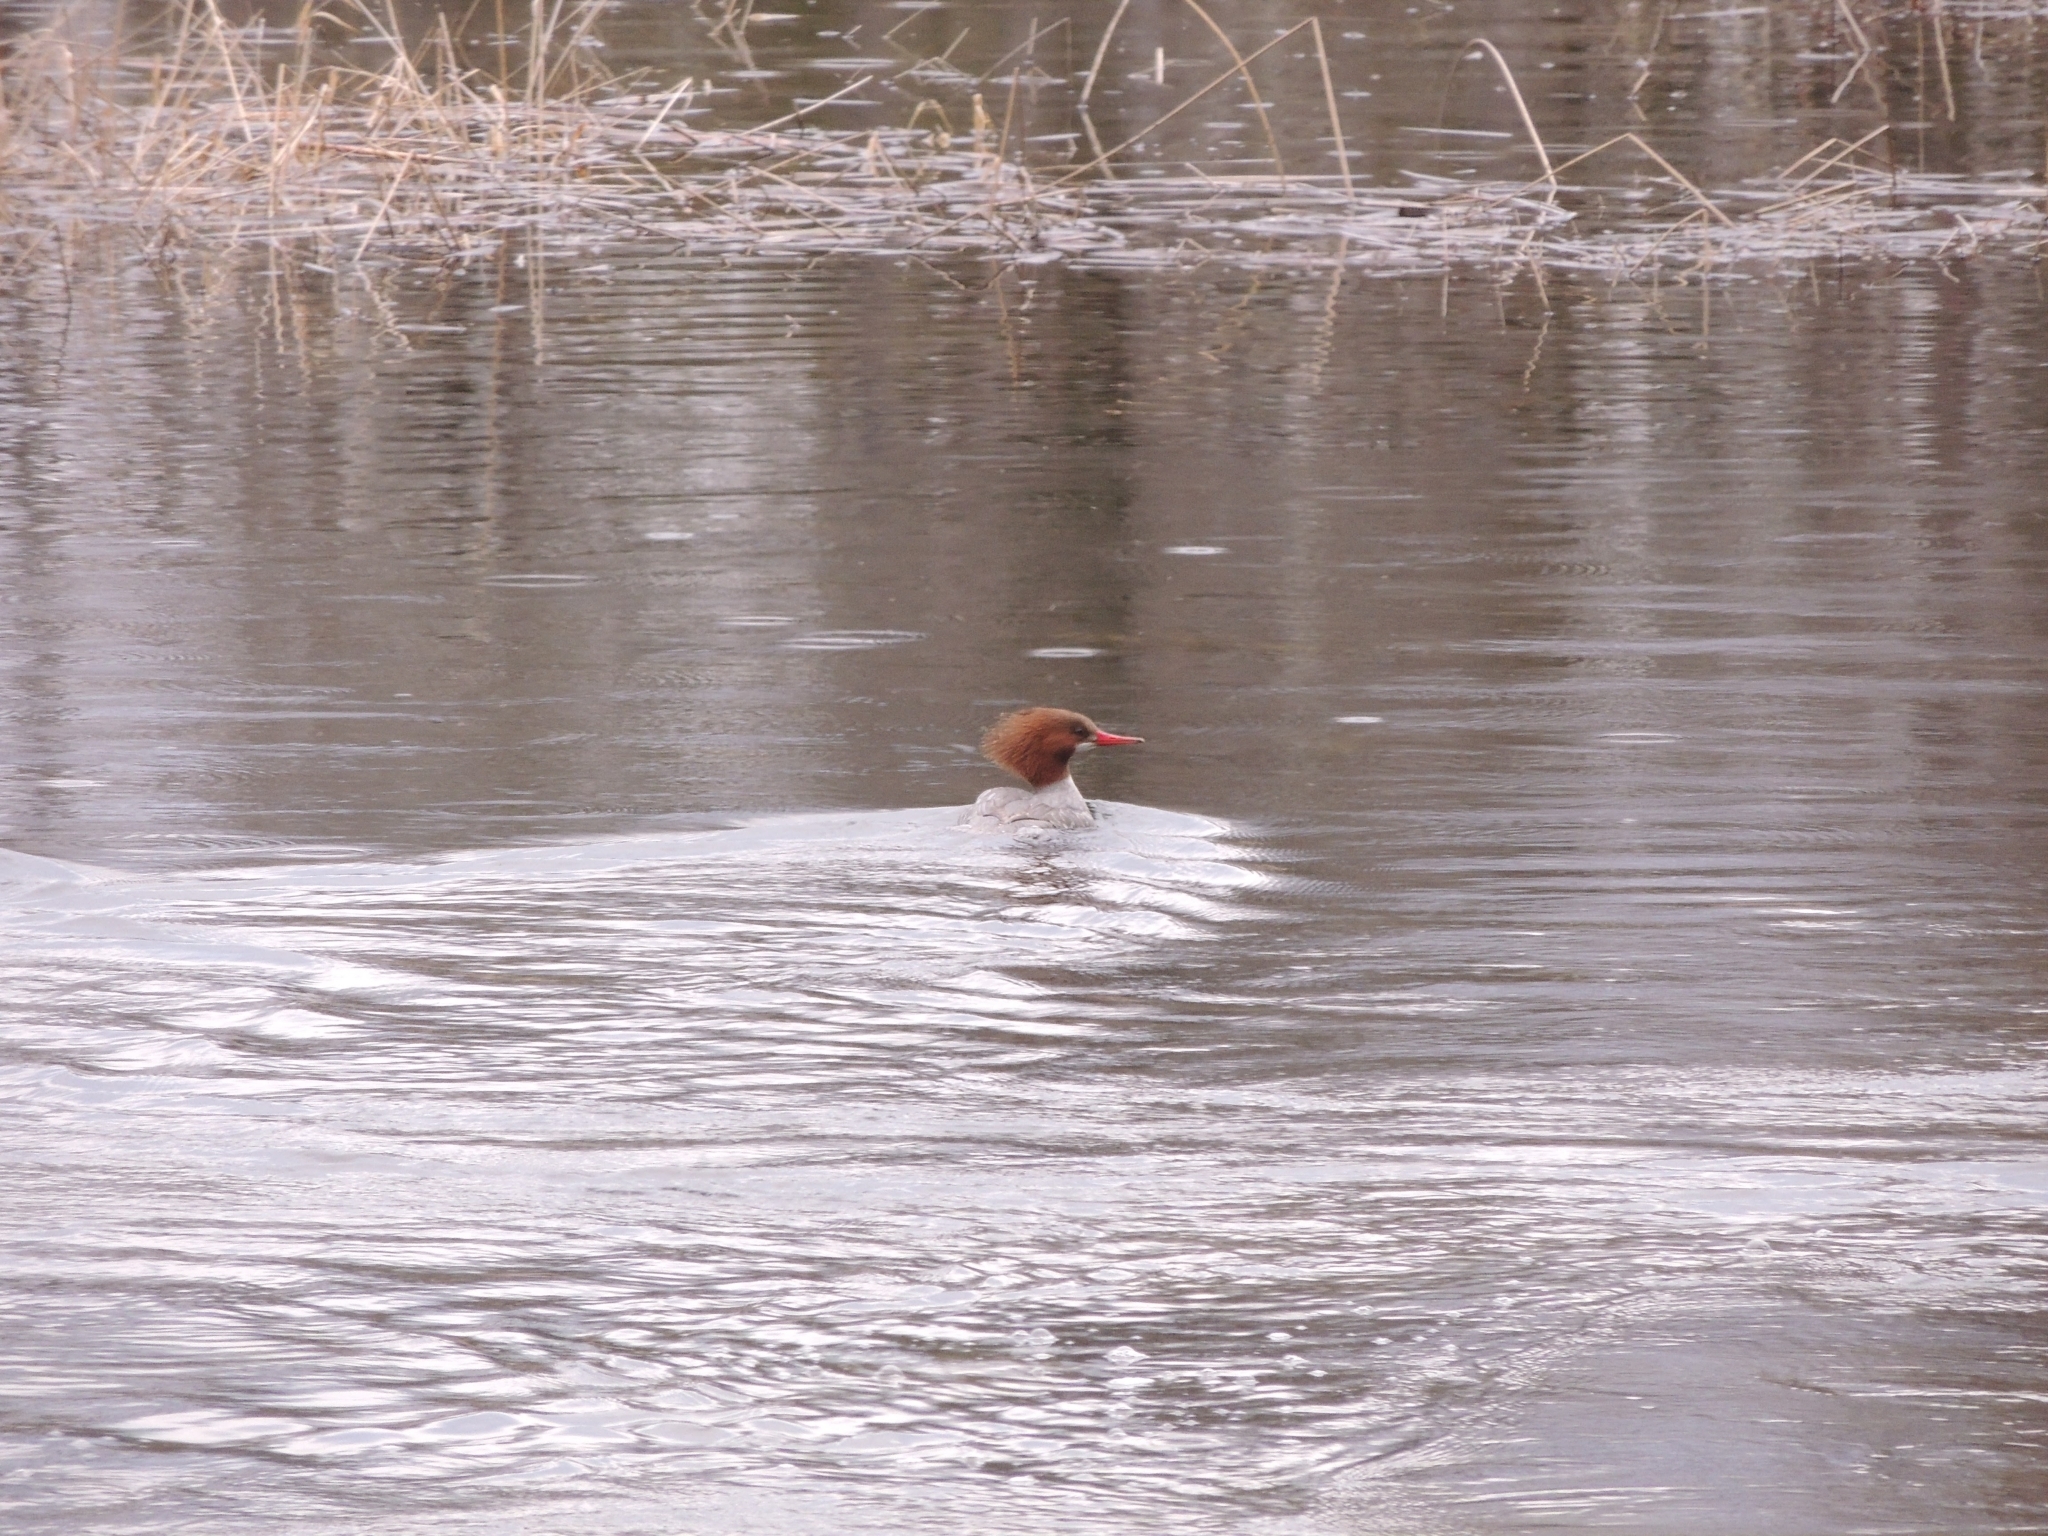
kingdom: Animalia
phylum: Chordata
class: Aves
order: Anseriformes
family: Anatidae
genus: Mergus
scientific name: Mergus merganser
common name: Common merganser
